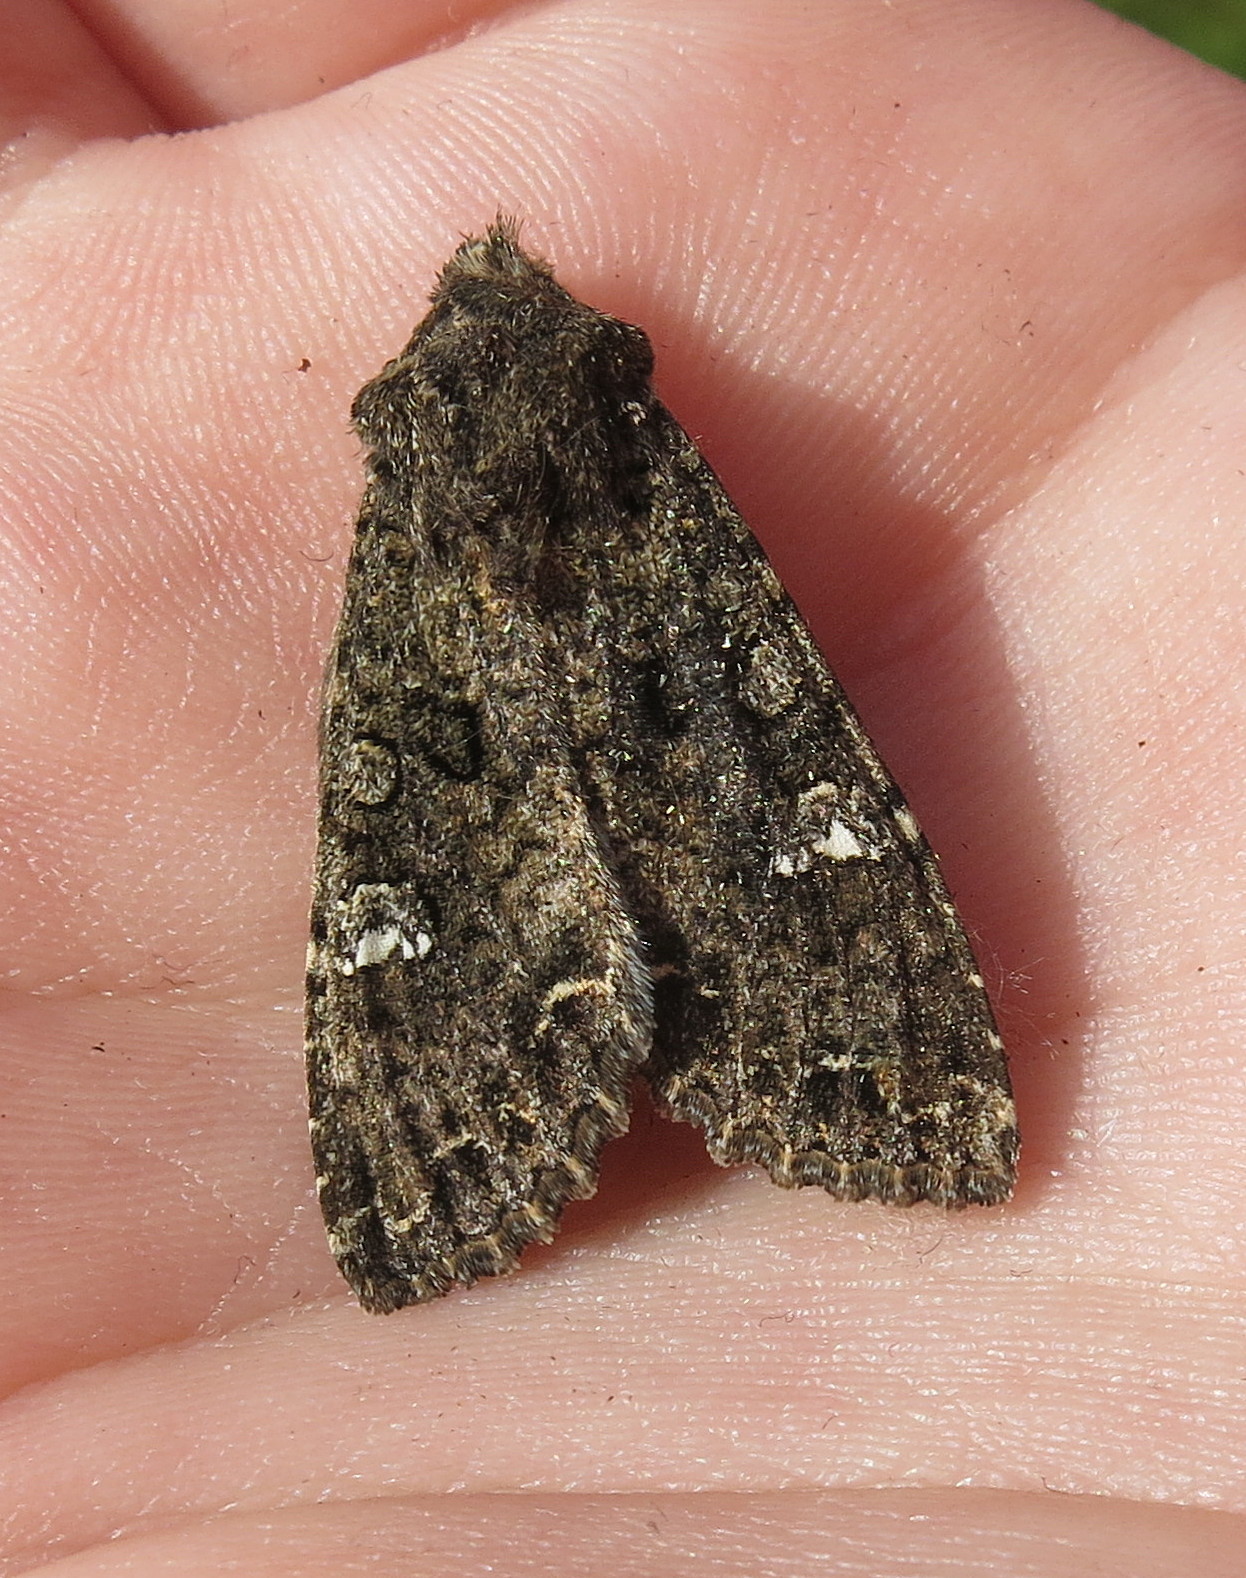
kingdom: Animalia
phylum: Arthropoda
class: Insecta
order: Lepidoptera
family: Noctuidae
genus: Mamestra
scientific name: Mamestra brassicae
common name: Cabbage moth
